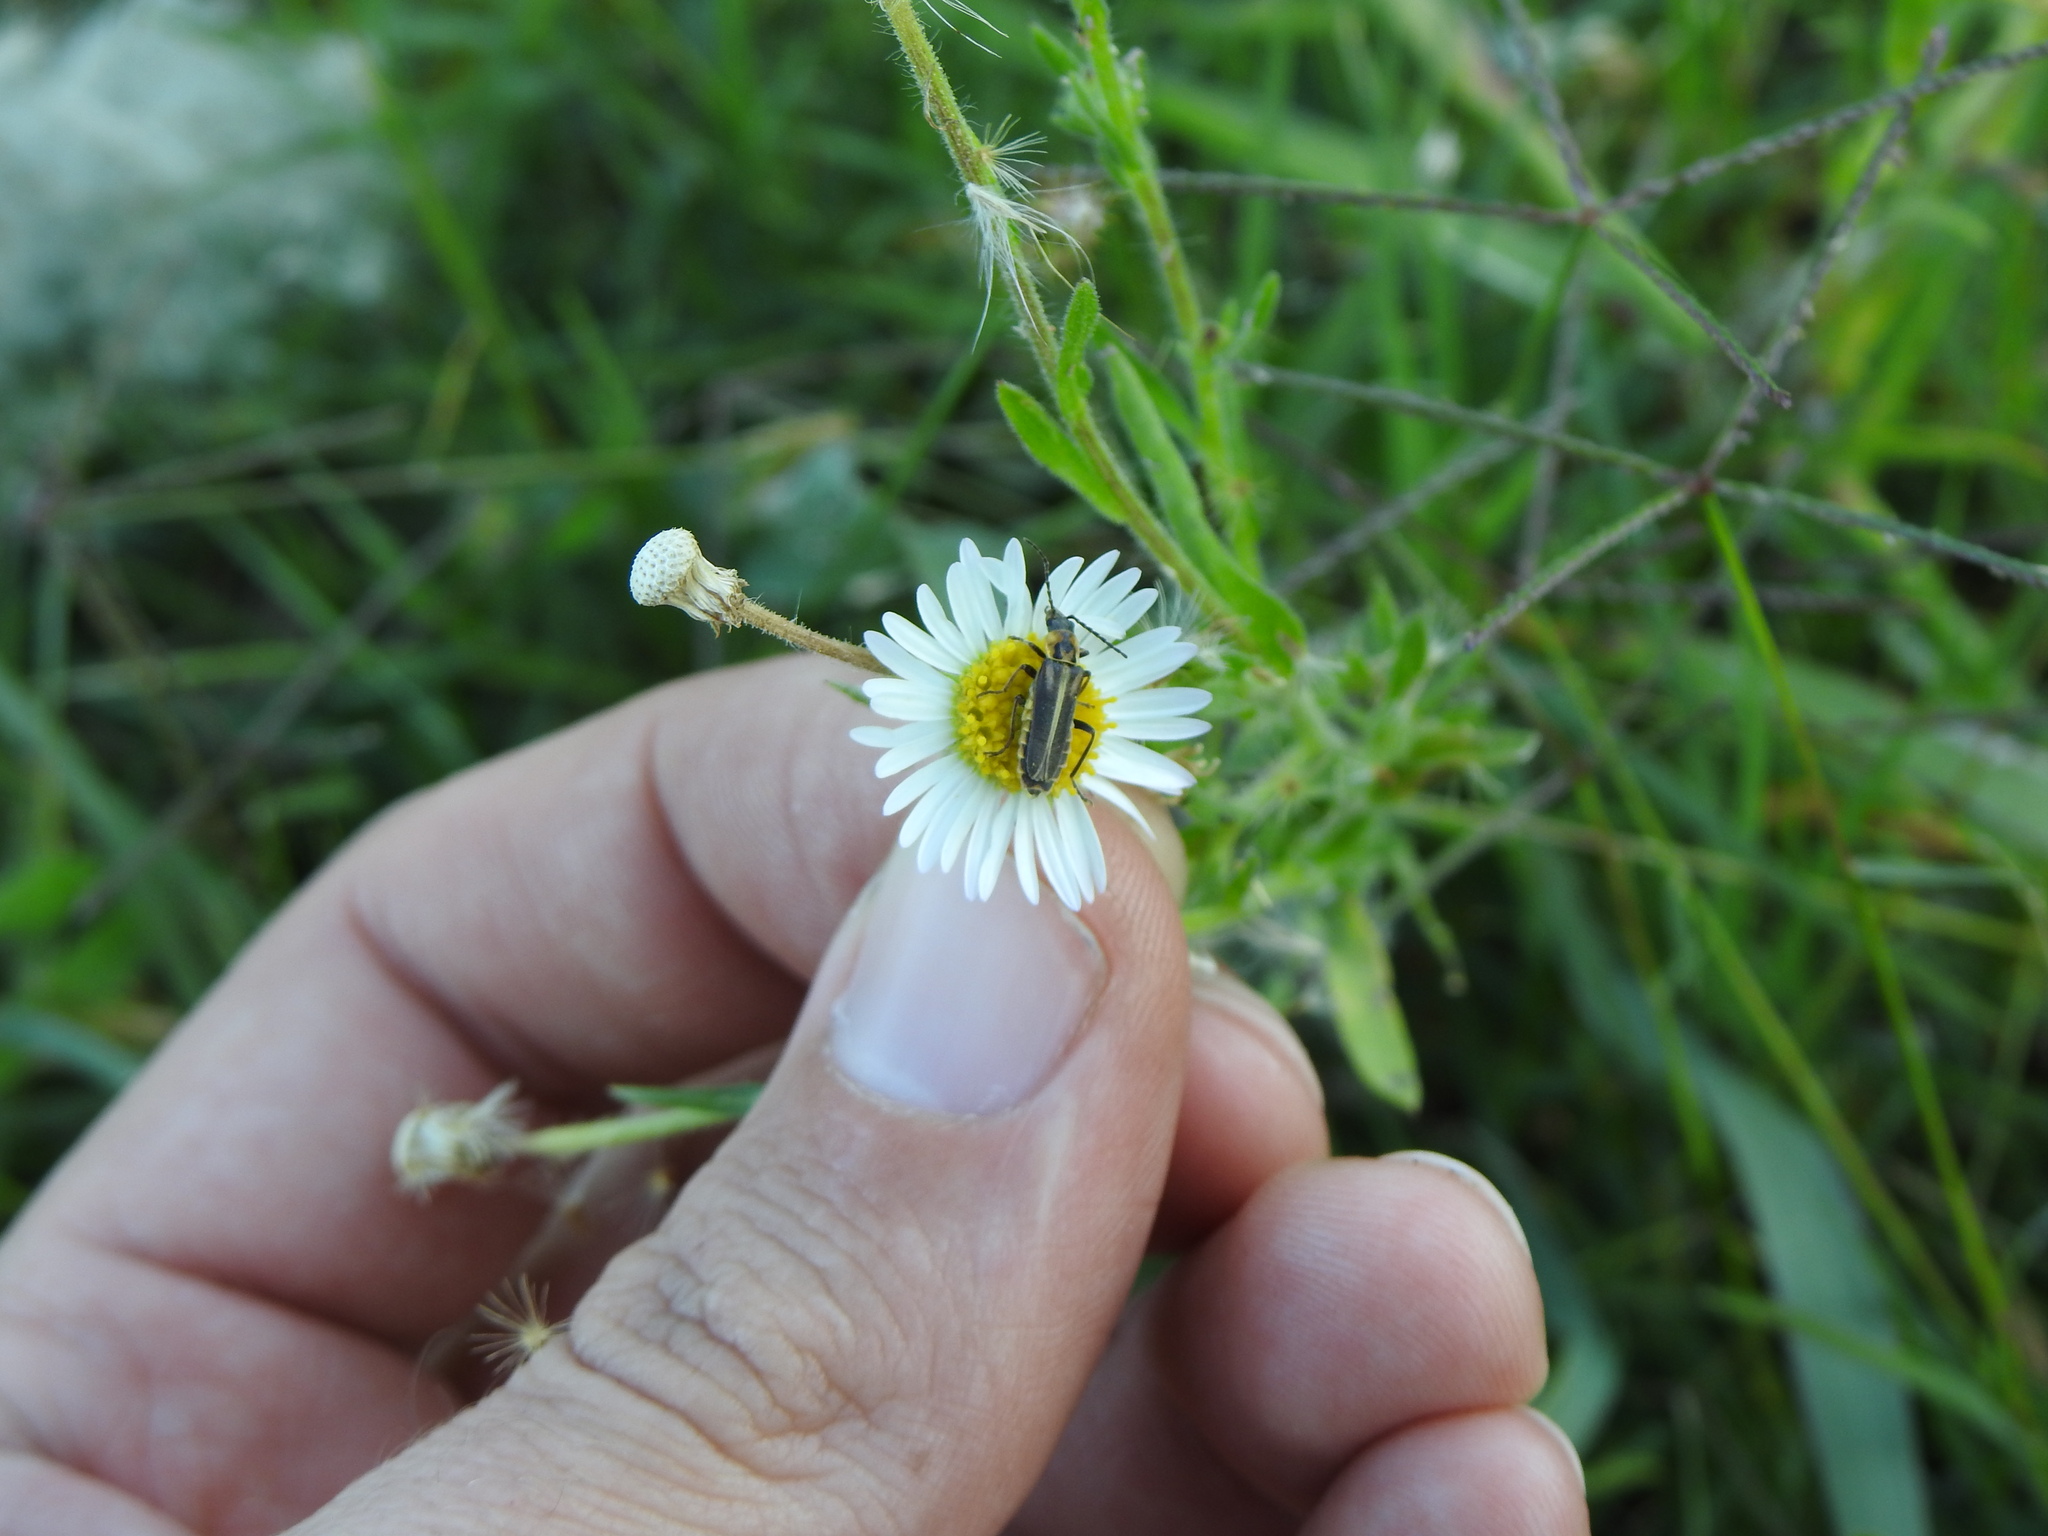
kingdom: Animalia
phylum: Arthropoda
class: Insecta
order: Coleoptera
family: Cantharidae
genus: Chauliognathus
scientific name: Chauliognathus
